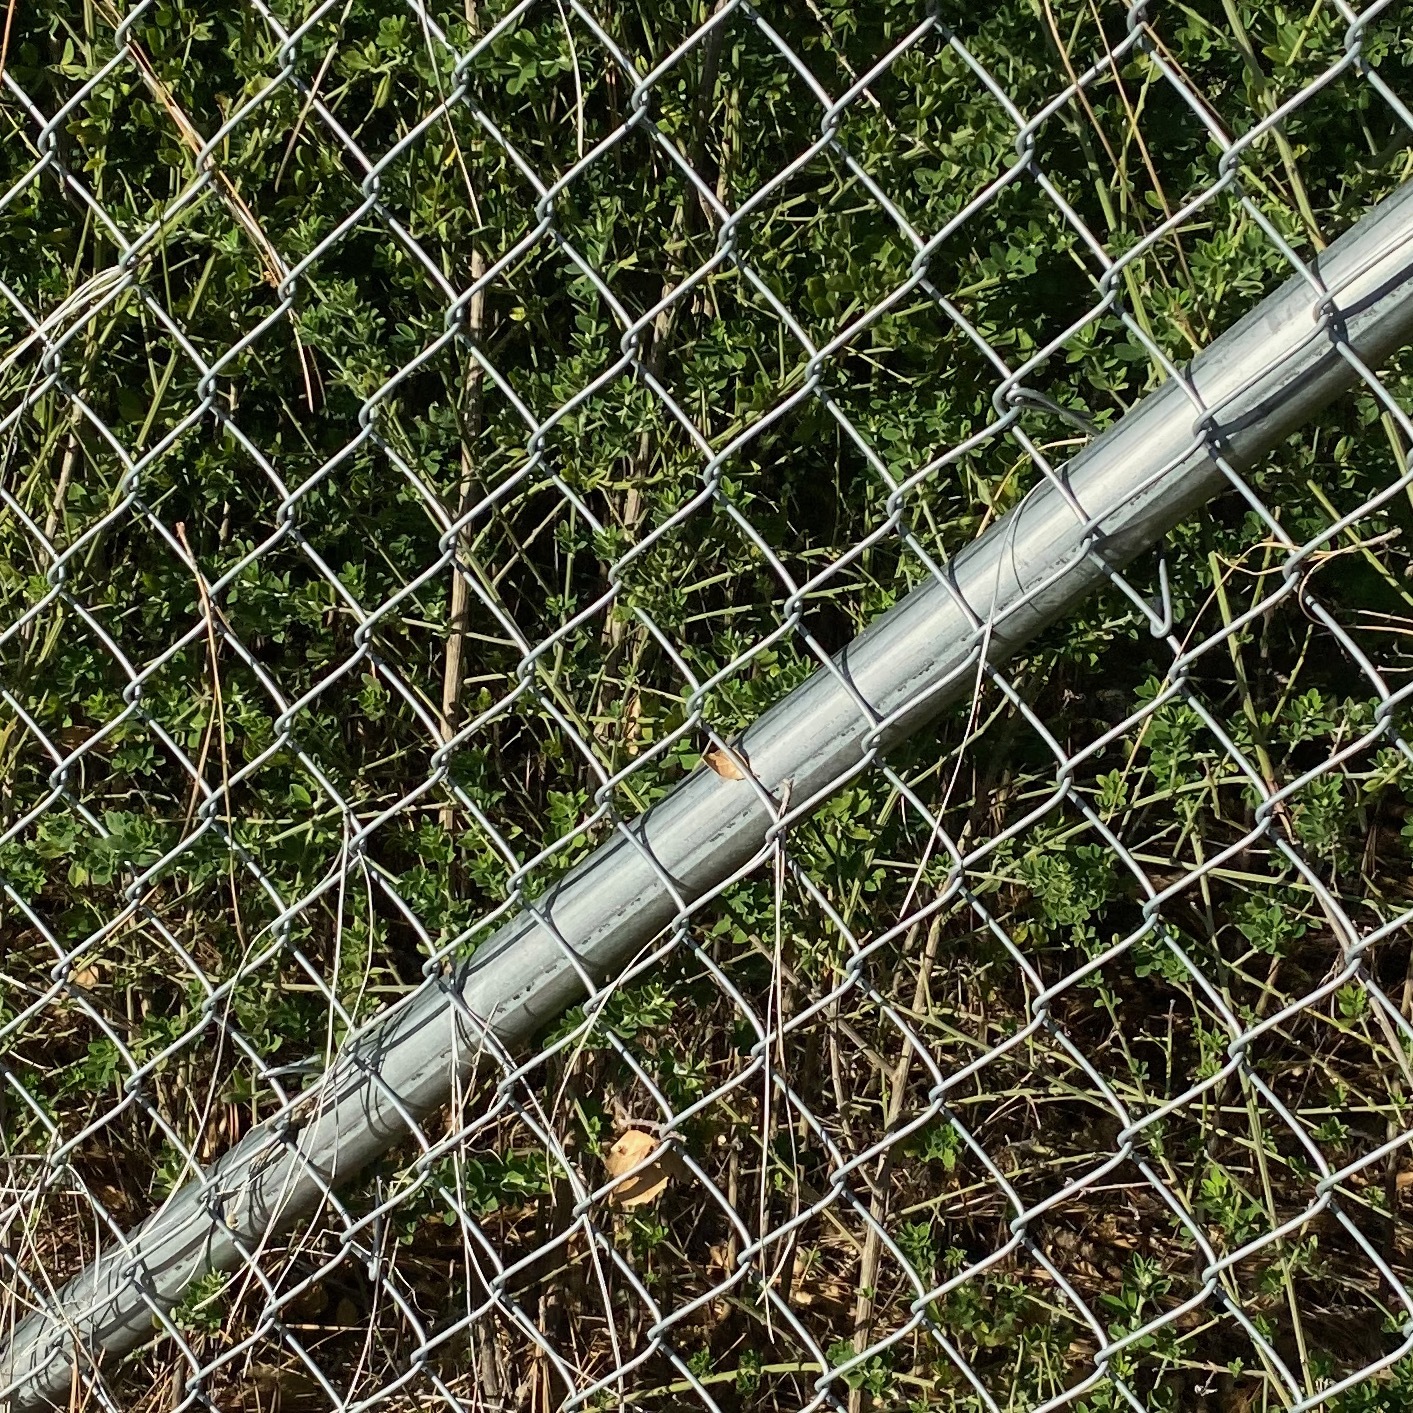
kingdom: Plantae
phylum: Tracheophyta
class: Magnoliopsida
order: Fabales
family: Fabaceae
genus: Genista
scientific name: Genista monspessulana
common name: Montpellier broom
